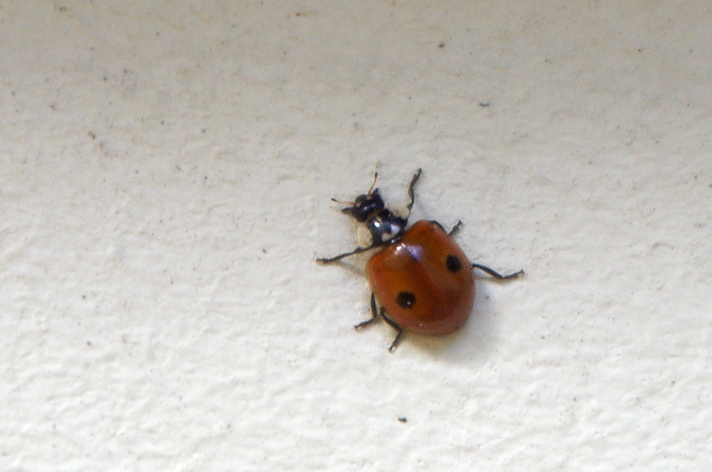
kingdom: Animalia
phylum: Arthropoda
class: Insecta
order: Coleoptera
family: Coccinellidae
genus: Adalia
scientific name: Adalia bipunctata
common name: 2-spot ladybird
